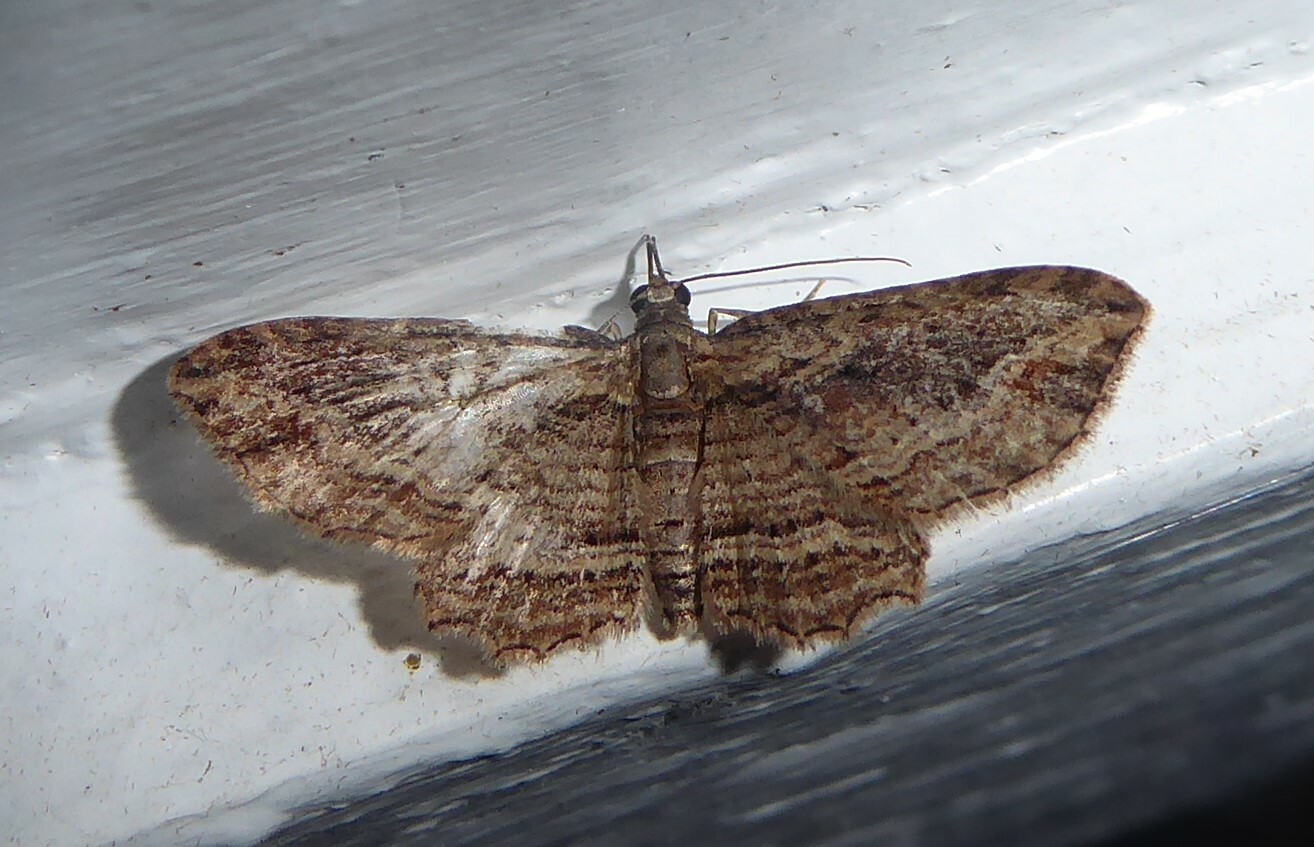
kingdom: Animalia
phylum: Arthropoda
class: Insecta
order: Lepidoptera
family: Geometridae
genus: Chloroclystis
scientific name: Chloroclystis filata
